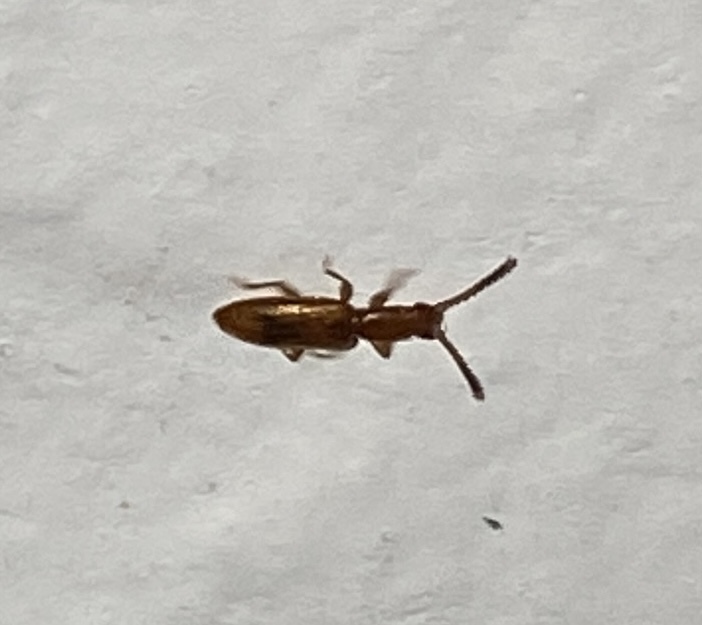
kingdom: Animalia
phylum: Arthropoda
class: Insecta
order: Coleoptera
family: Silvanidae
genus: Cryptamorpha
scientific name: Cryptamorpha desjardinsi
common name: Cryptamorpha
